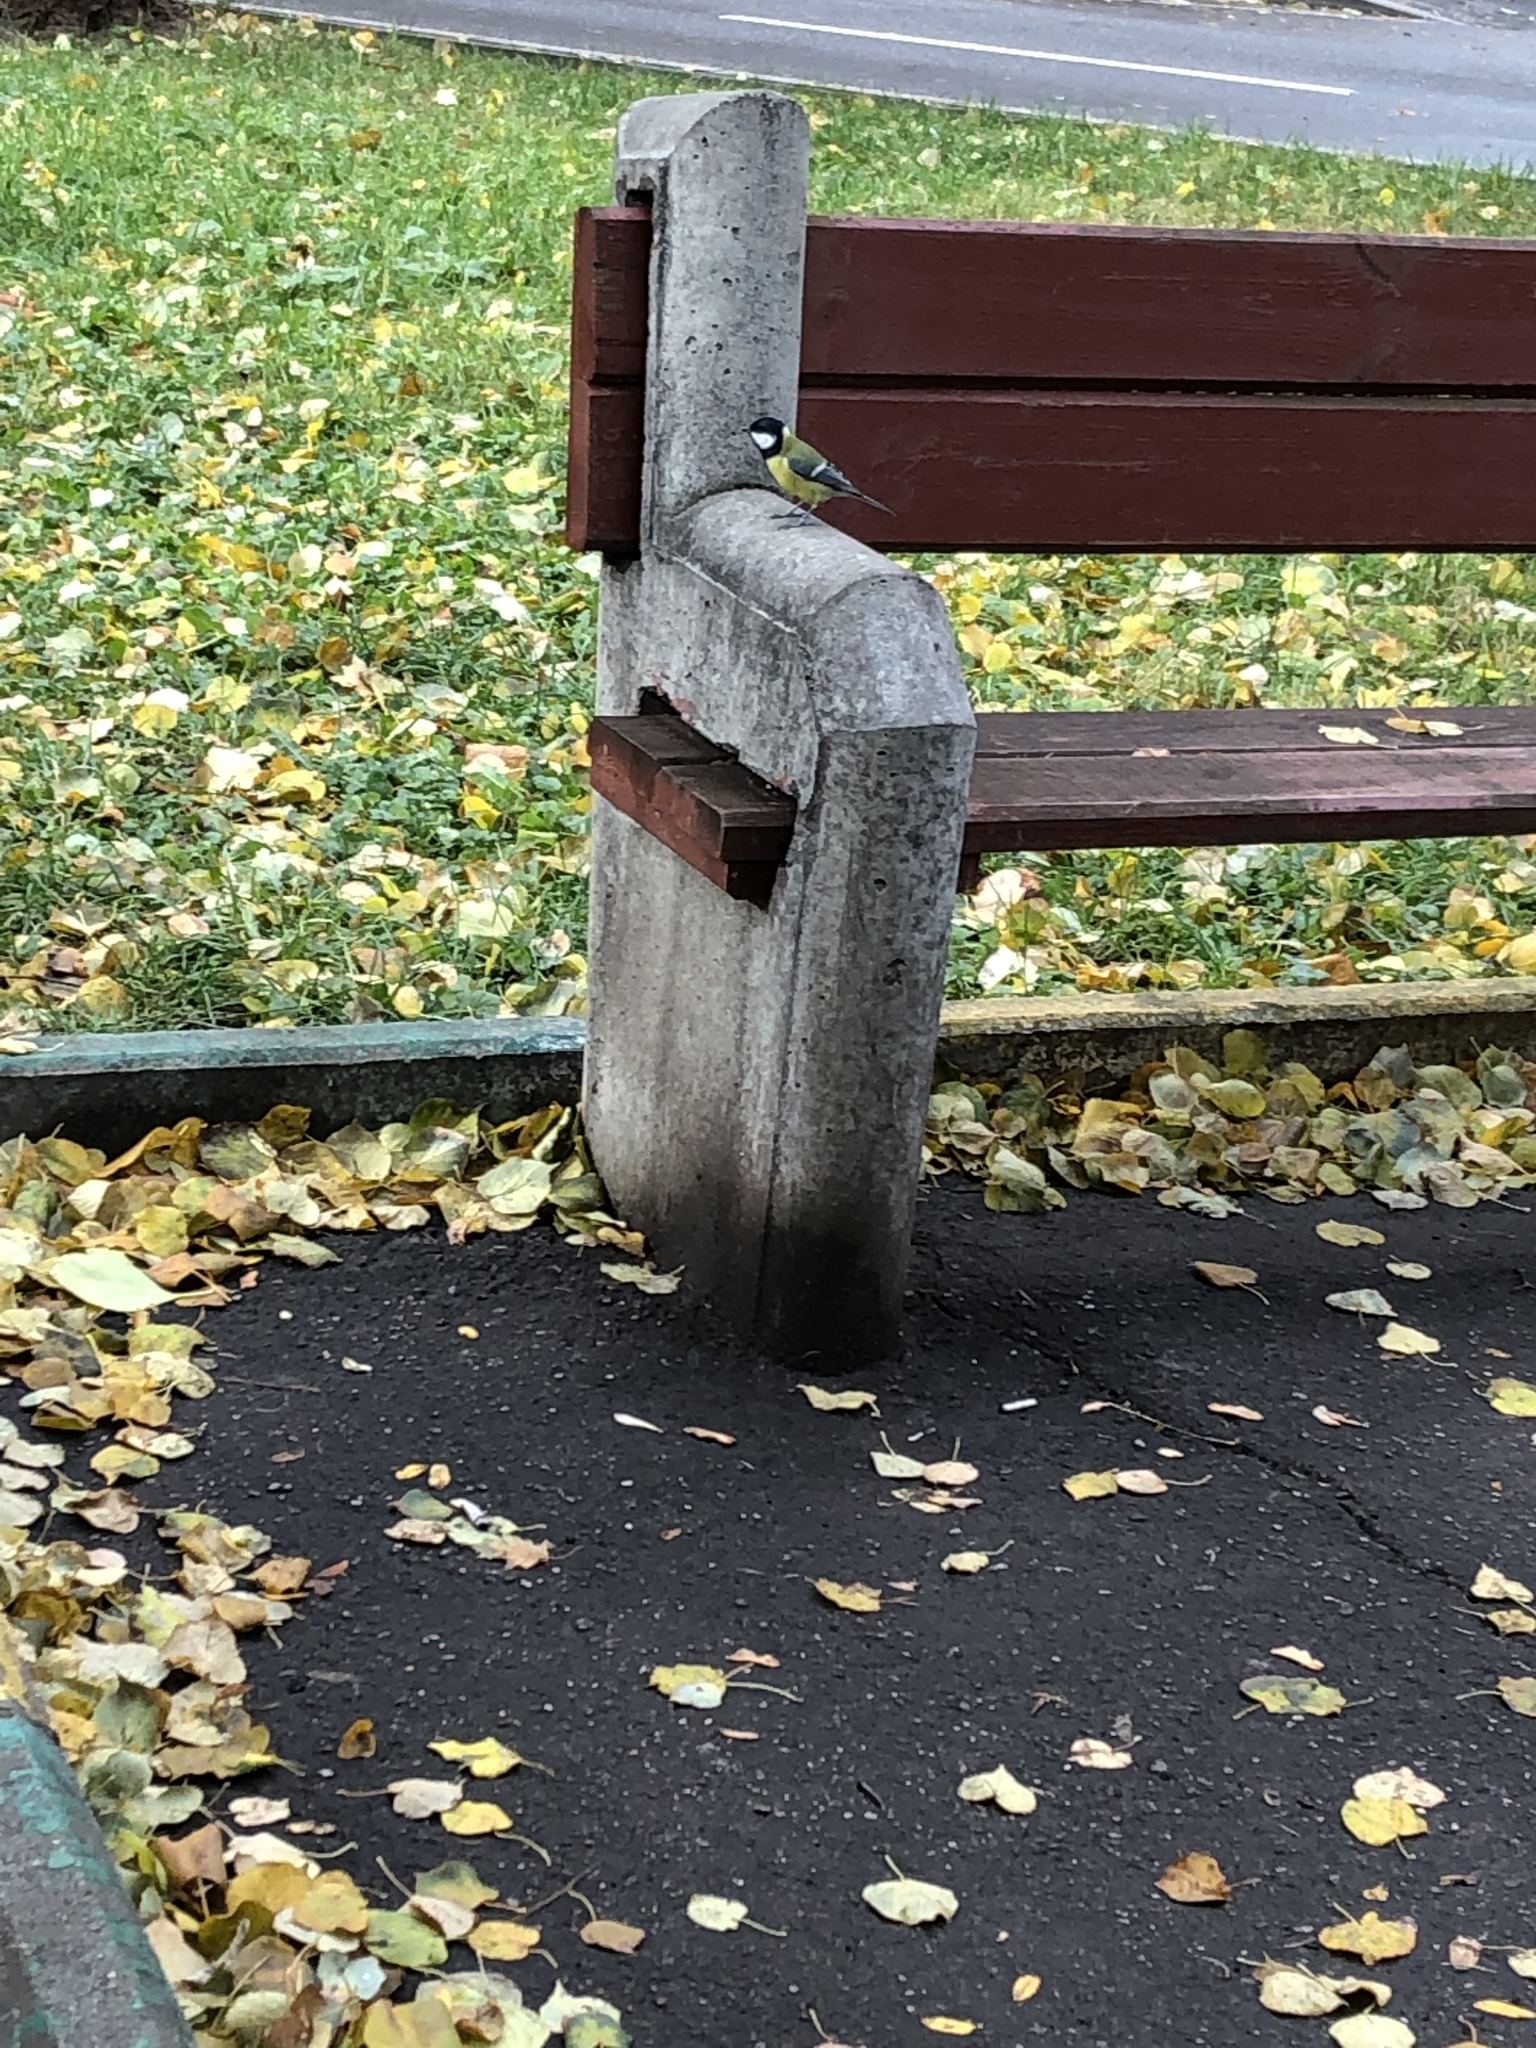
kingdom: Animalia
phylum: Chordata
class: Aves
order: Passeriformes
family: Paridae
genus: Parus
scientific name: Parus major
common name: Great tit
